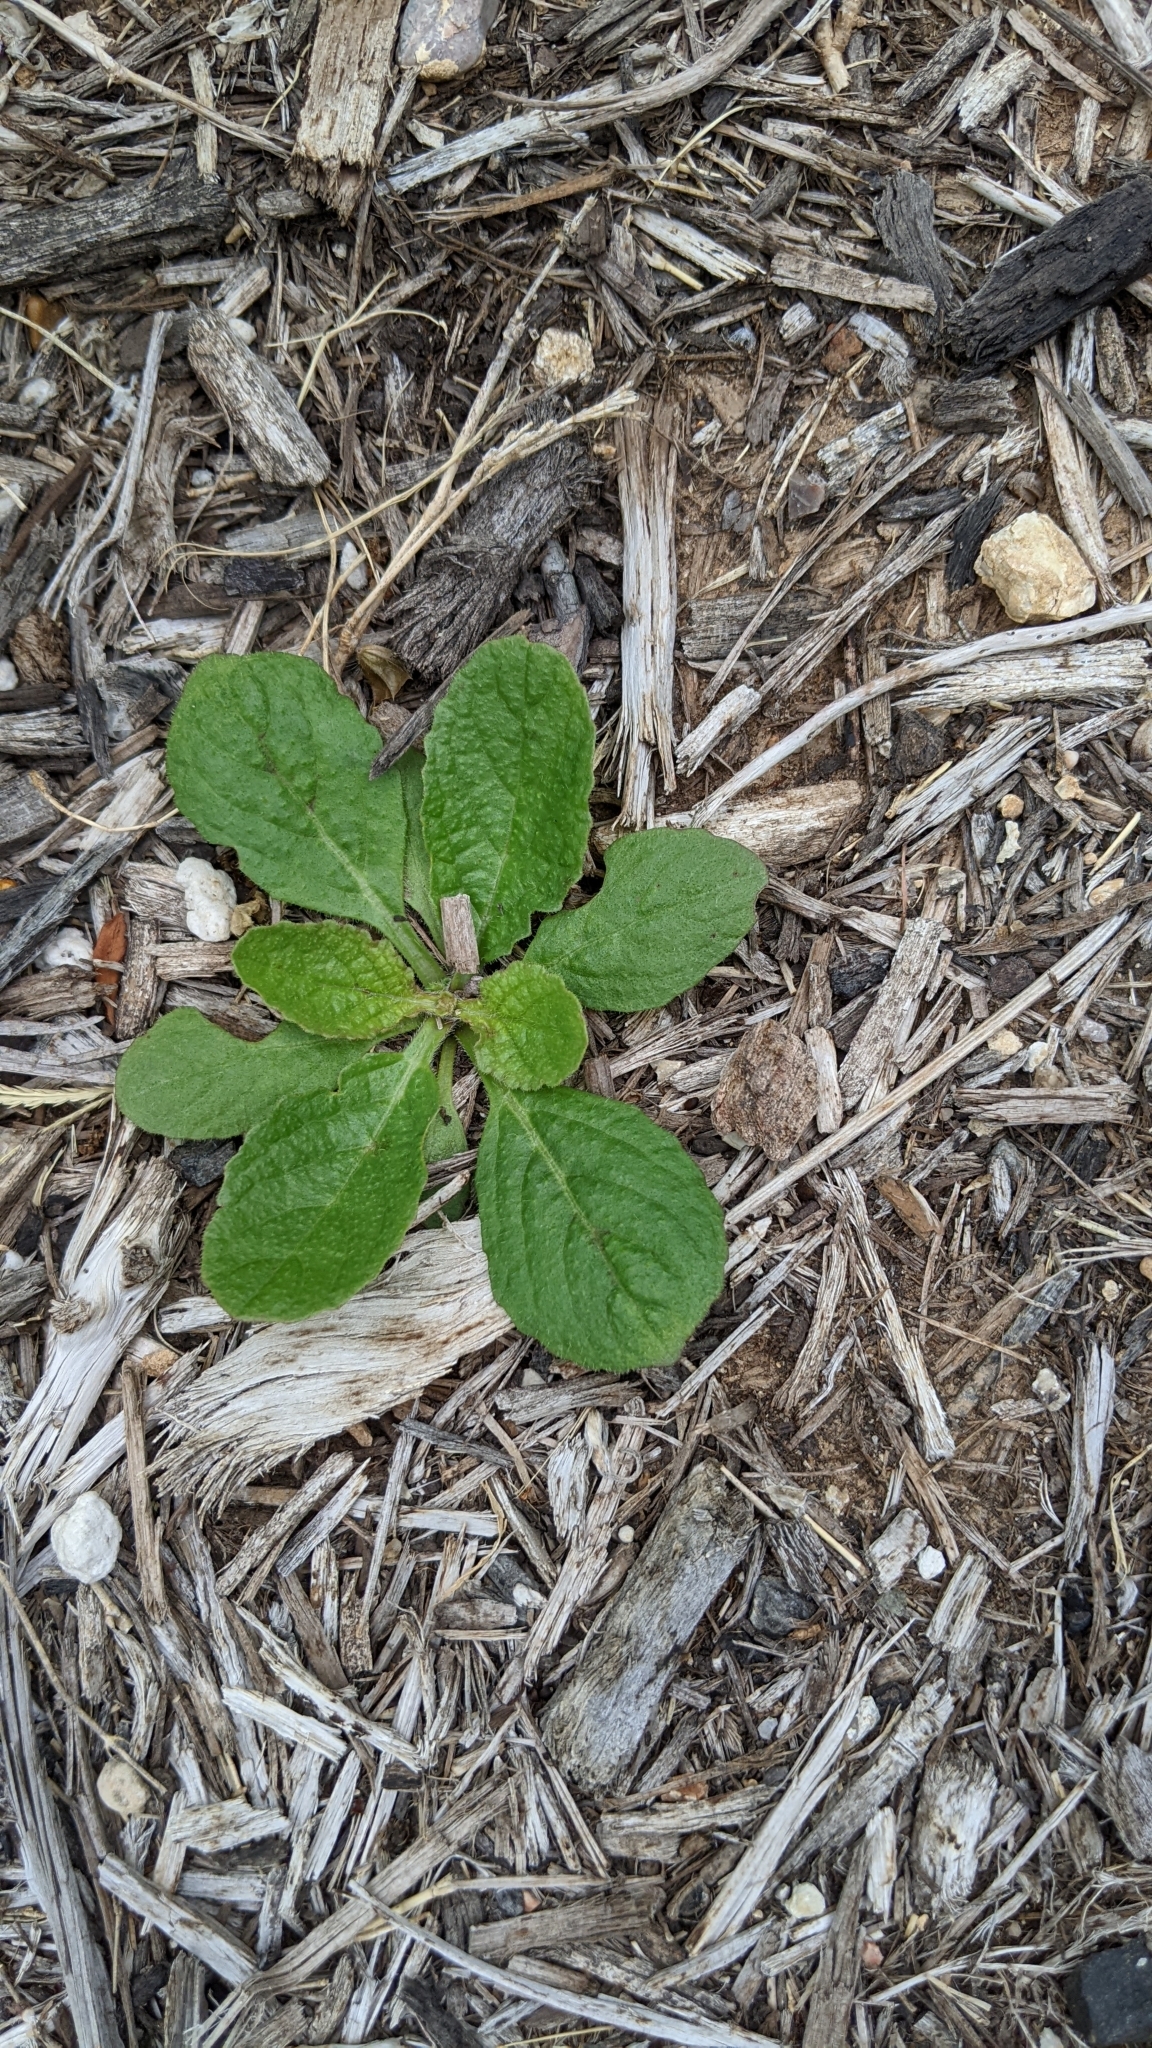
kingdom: Plantae
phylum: Tracheophyta
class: Magnoliopsida
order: Lamiales
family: Lamiaceae
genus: Salvia
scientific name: Salvia lyrata
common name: Cancerweed
